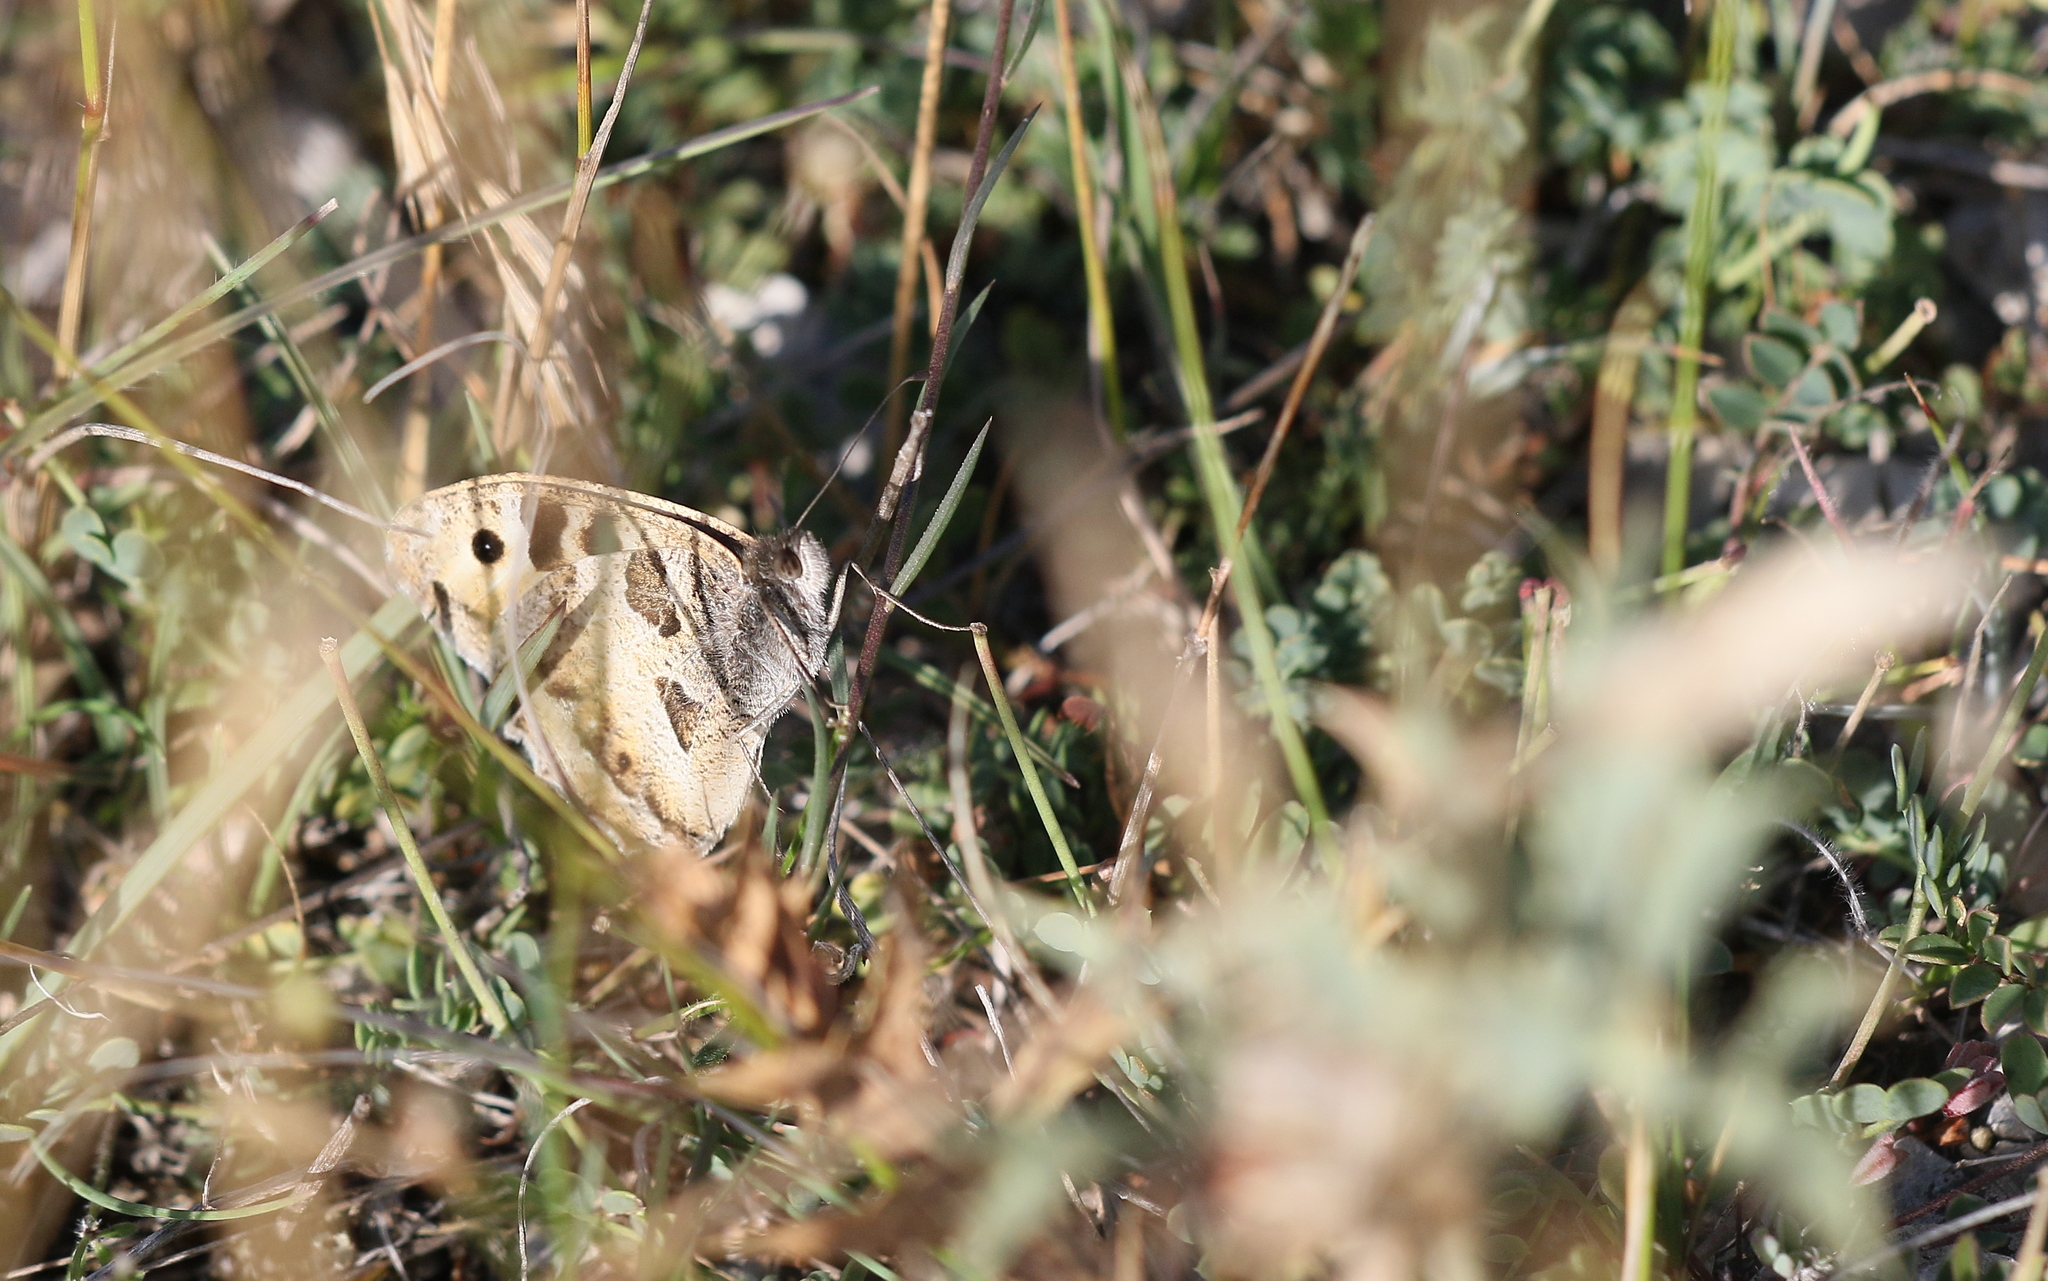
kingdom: Animalia
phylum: Arthropoda
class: Insecta
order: Lepidoptera
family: Nymphalidae
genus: Satyrus
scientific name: Satyrus briseis
